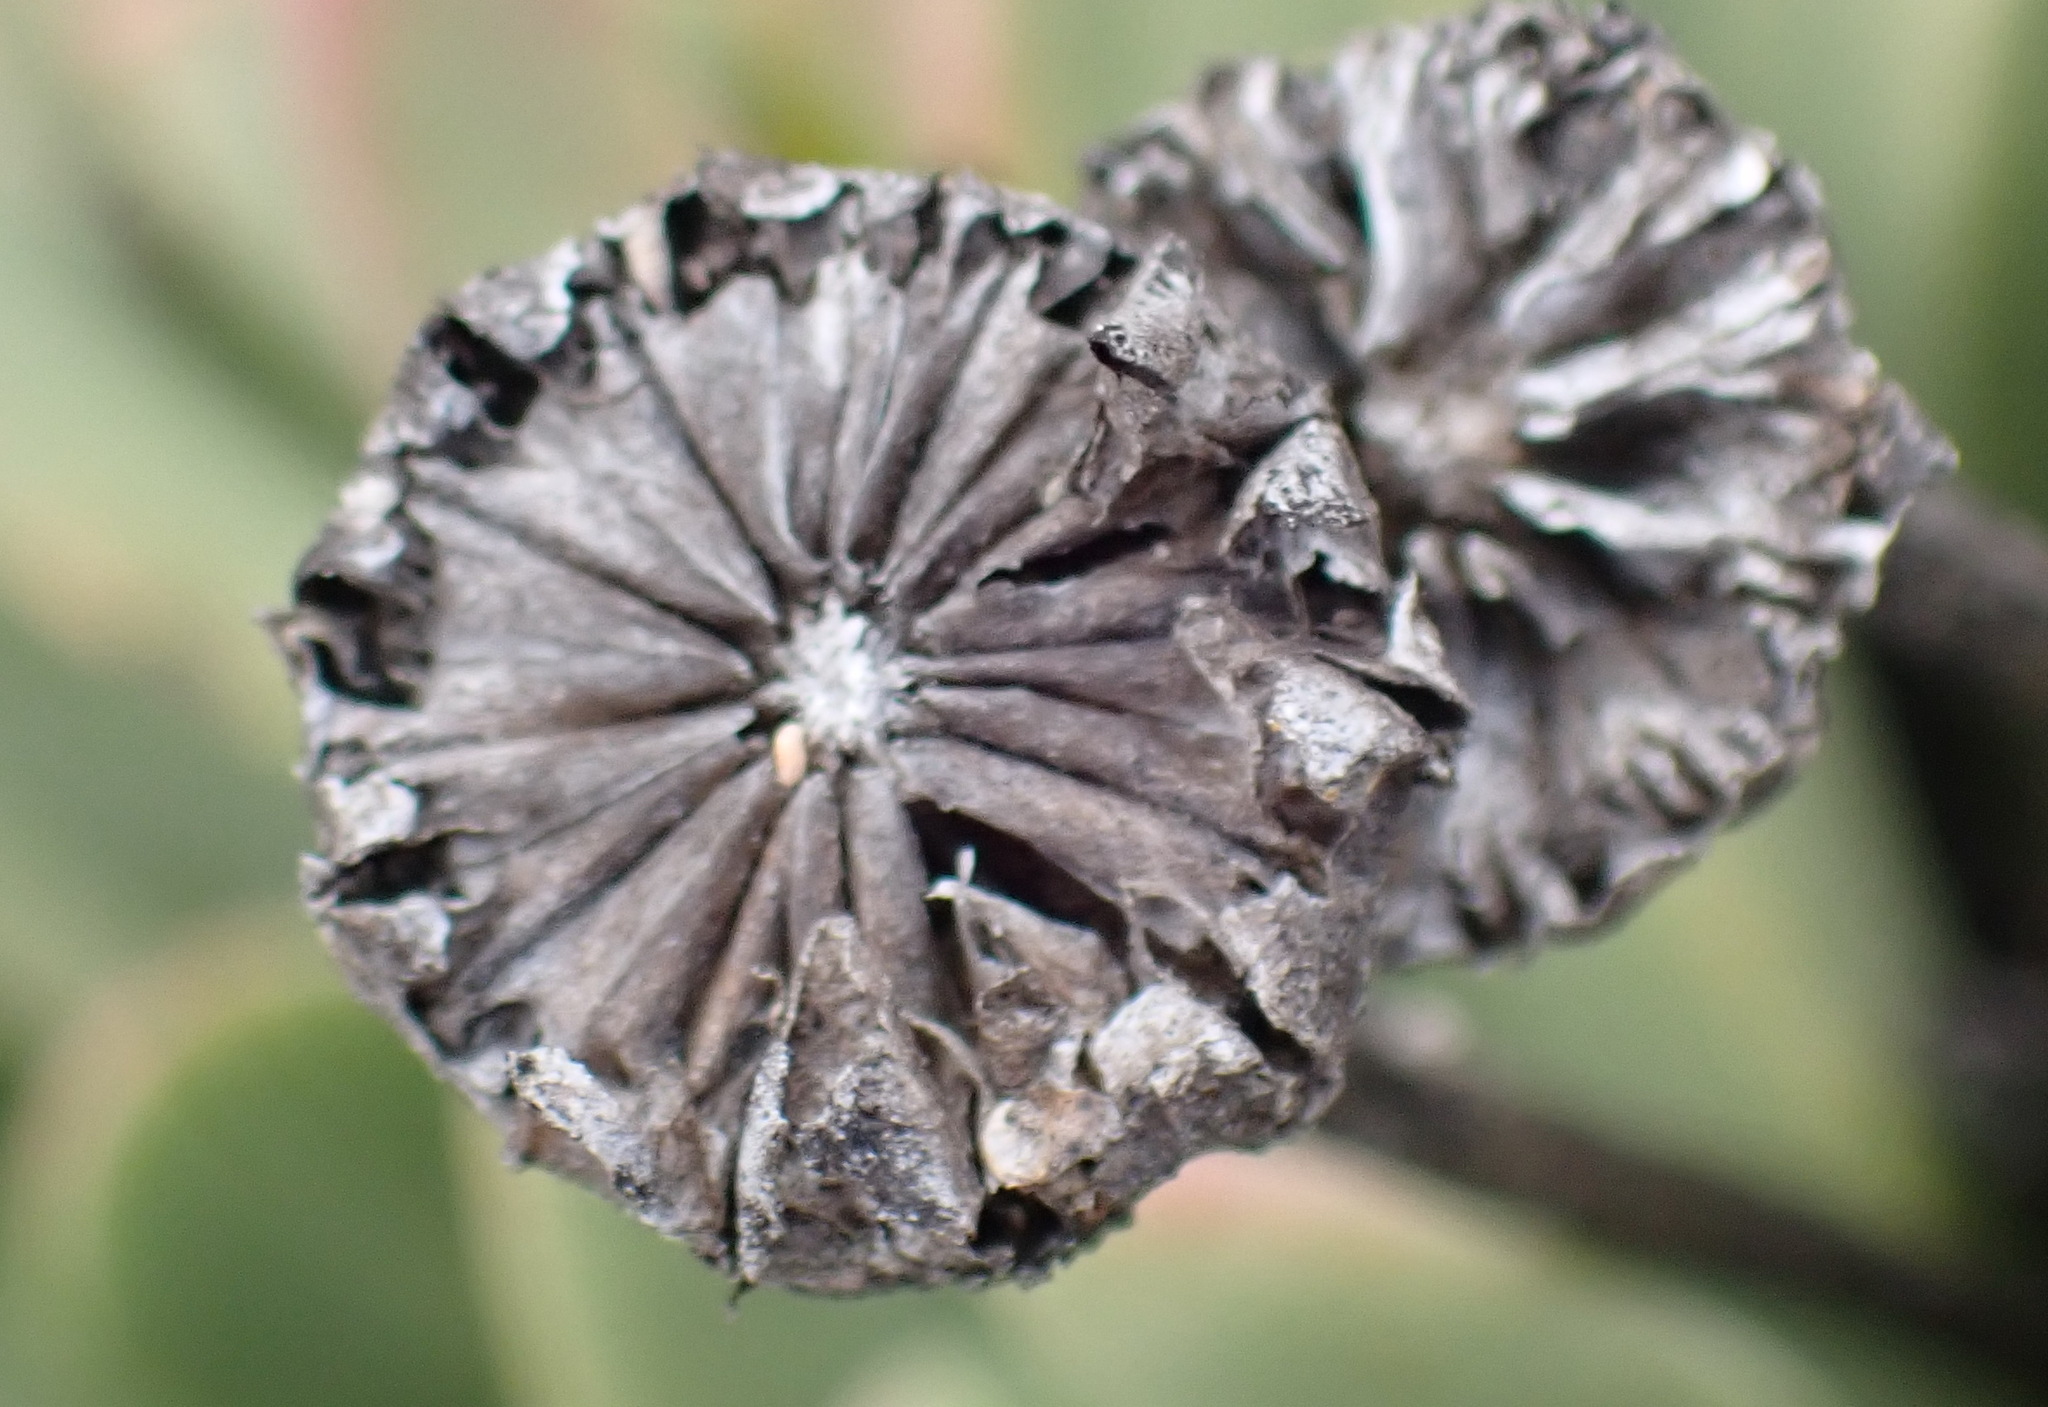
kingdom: Plantae
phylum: Tracheophyta
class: Magnoliopsida
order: Caryophyllales
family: Aizoaceae
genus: Machairophyllum
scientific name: Machairophyllum albidum
